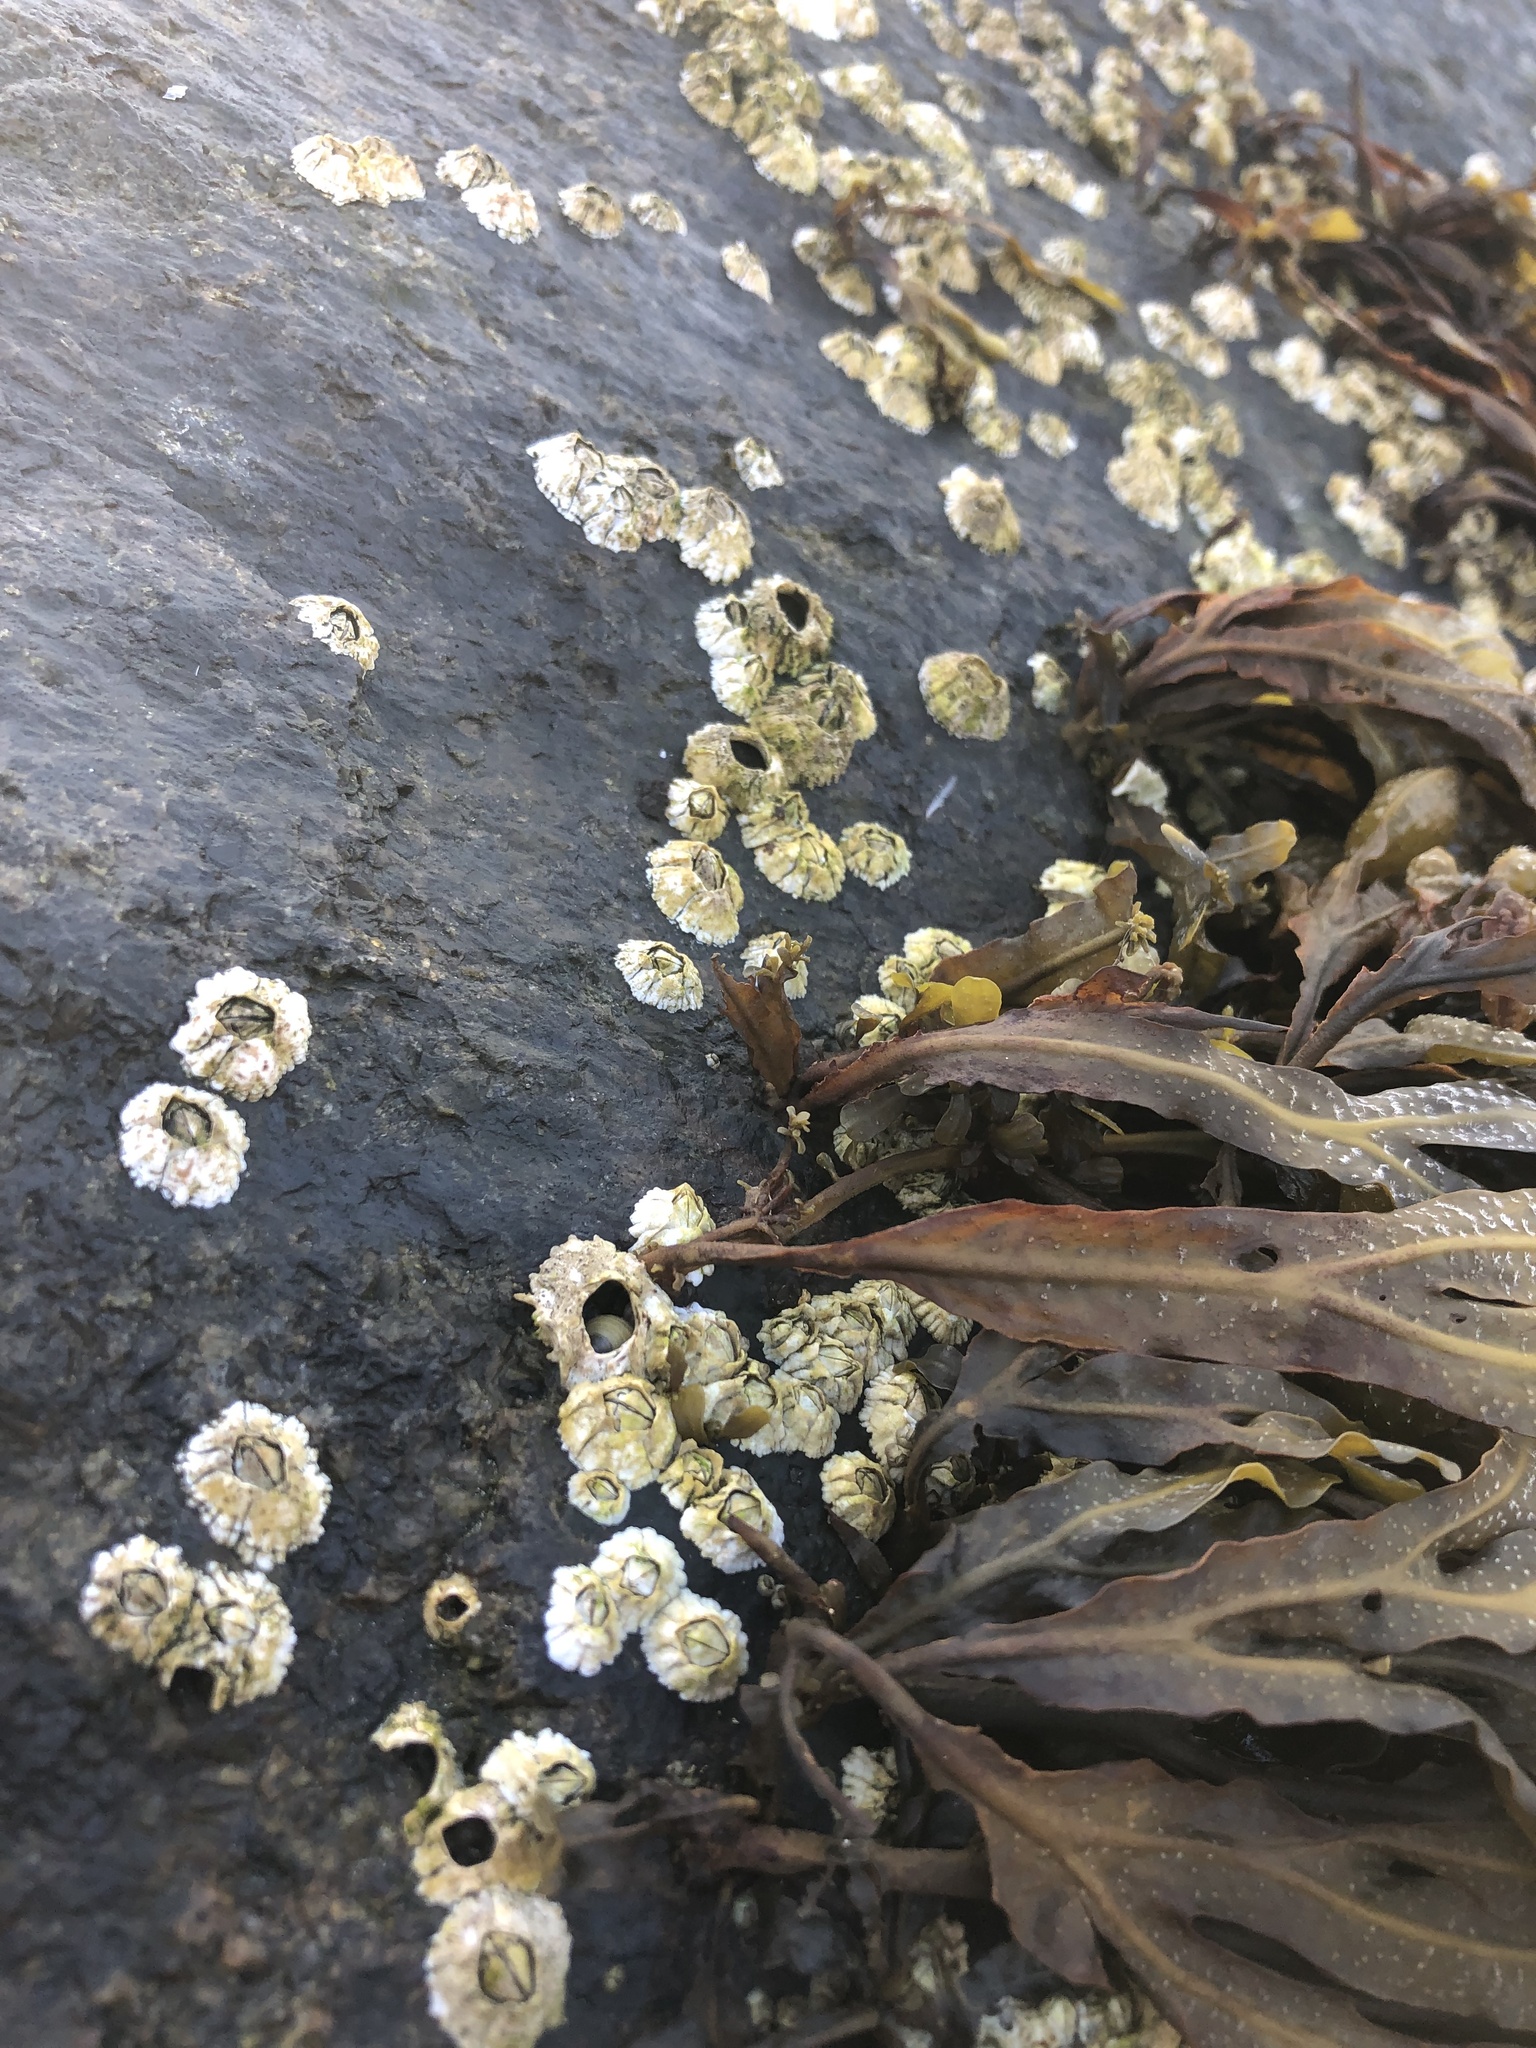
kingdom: Animalia
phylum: Arthropoda
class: Maxillopoda
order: Sessilia
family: Archaeobalanidae
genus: Semibalanus
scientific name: Semibalanus balanoides
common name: Acorn barnacle
